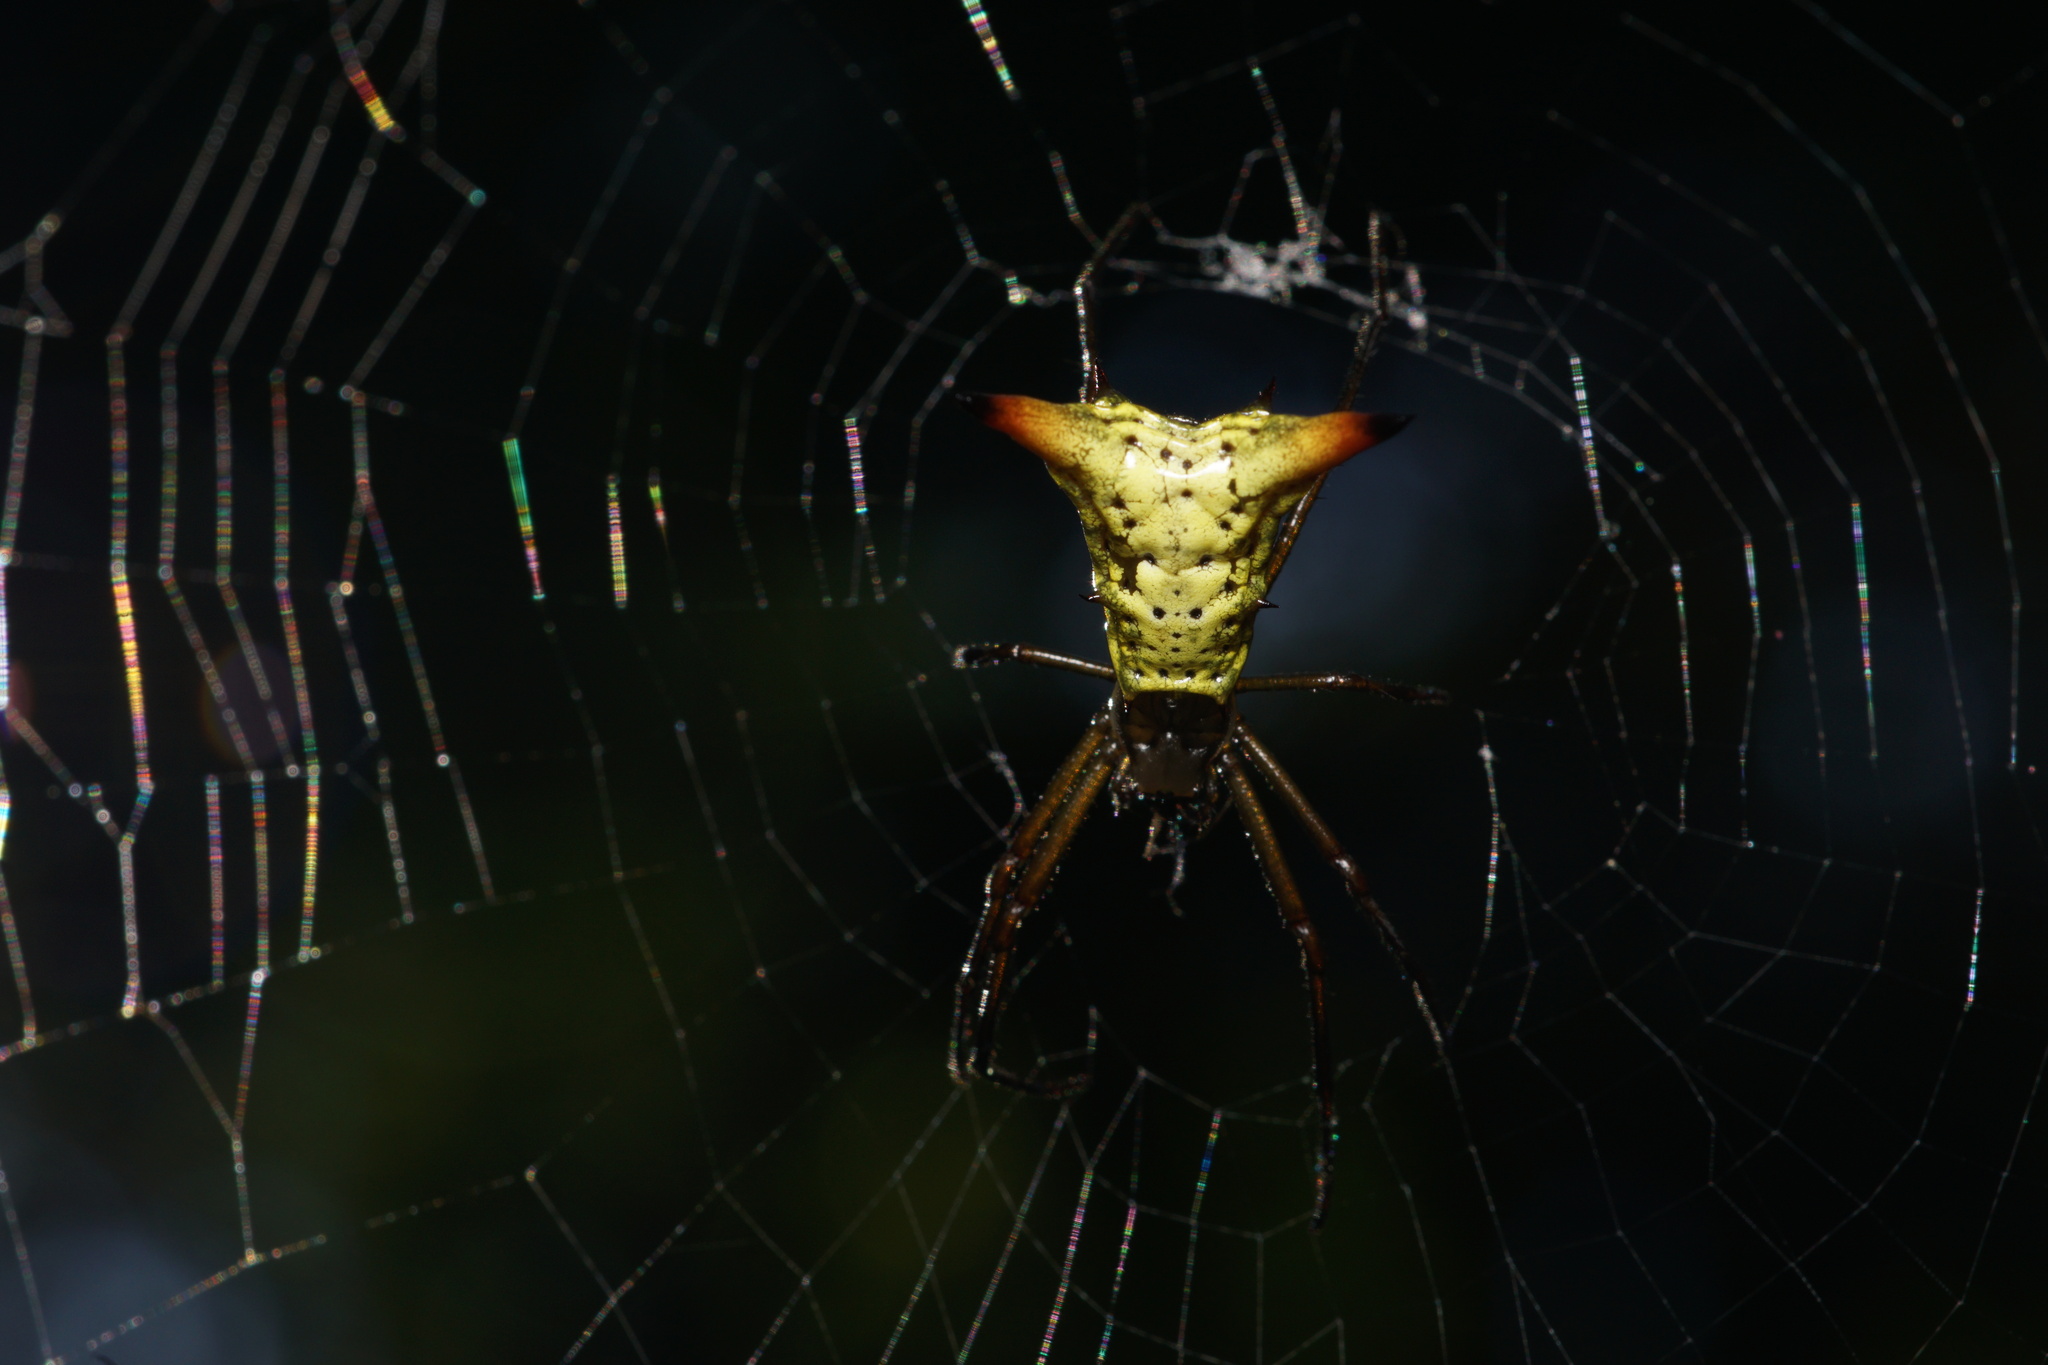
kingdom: Animalia
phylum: Arthropoda
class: Arachnida
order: Araneae
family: Araneidae
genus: Micrathena
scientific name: Micrathena crassispina
